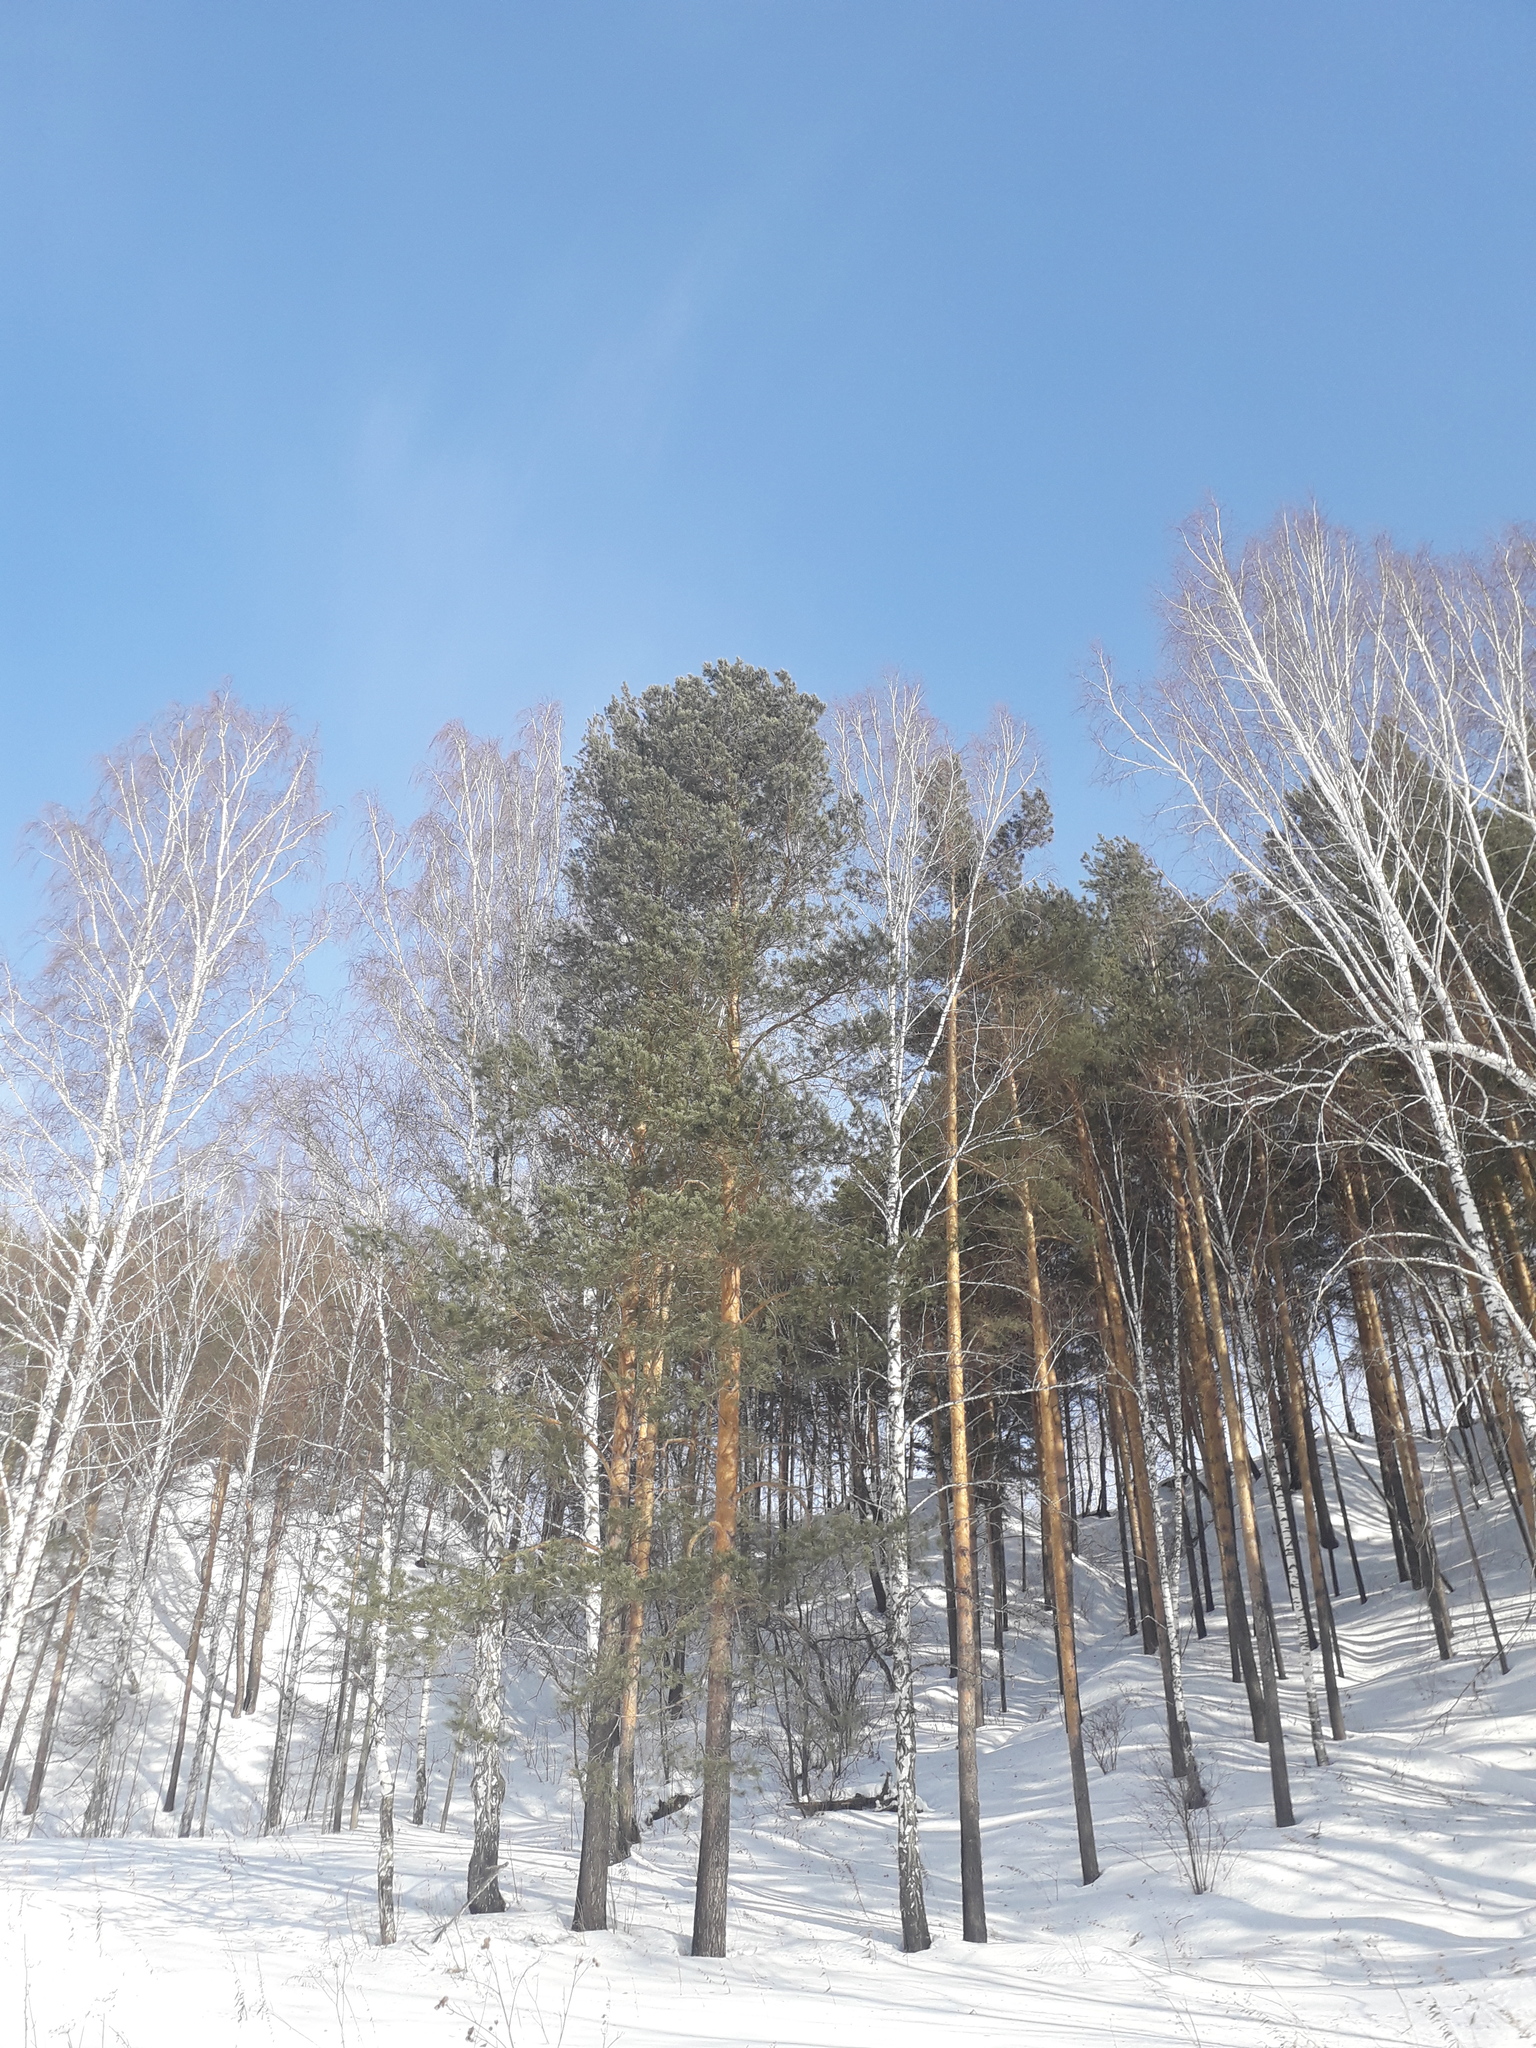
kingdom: Plantae
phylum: Tracheophyta
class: Pinopsida
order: Pinales
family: Pinaceae
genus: Pinus
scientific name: Pinus sylvestris
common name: Scots pine
